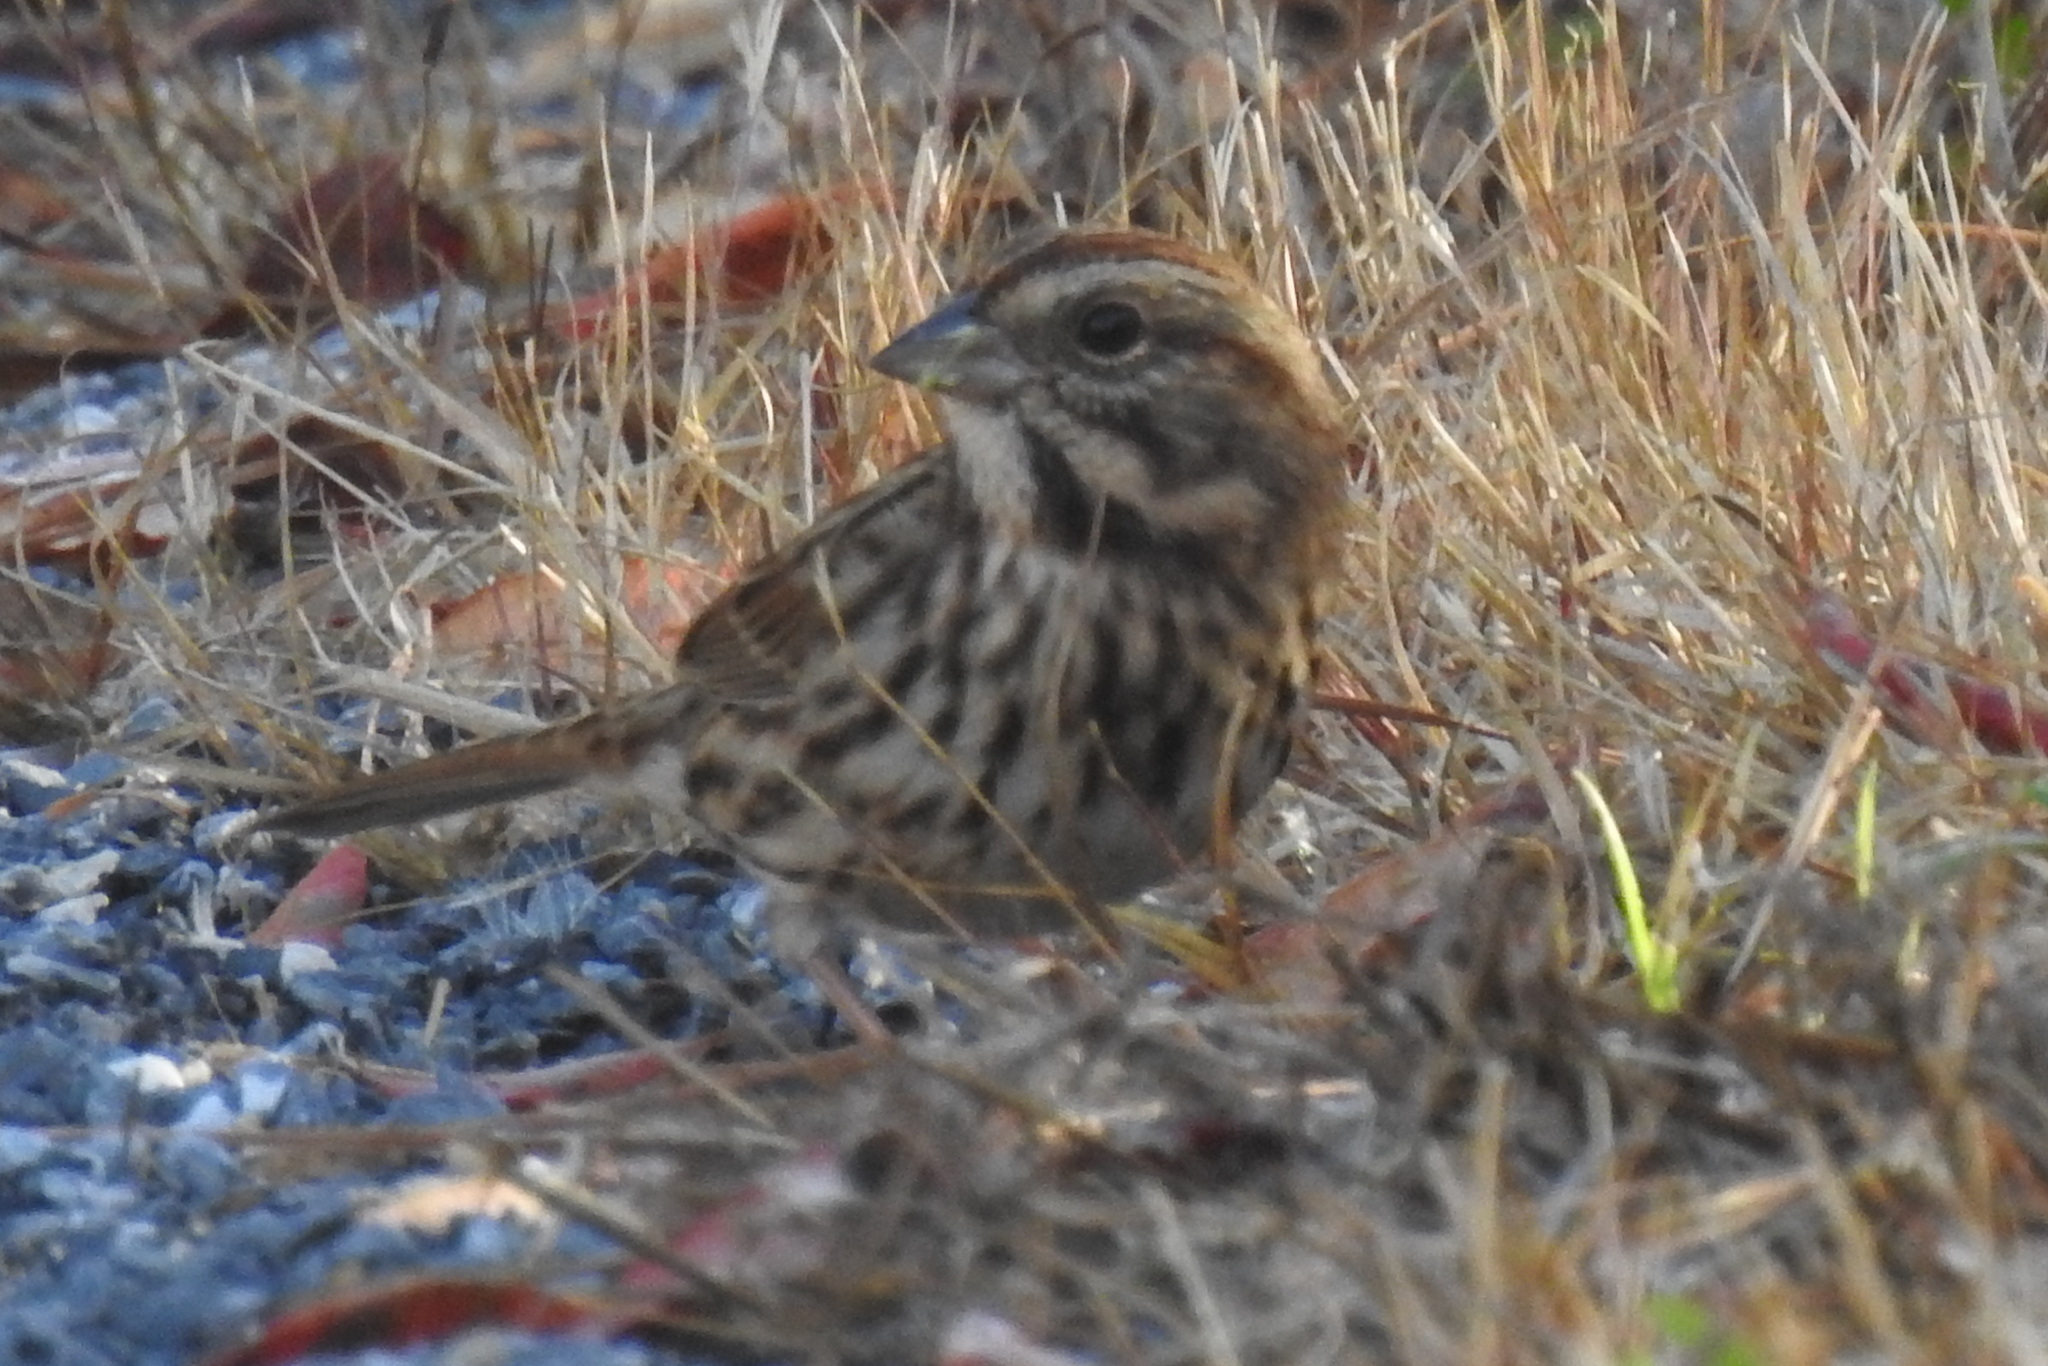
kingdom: Animalia
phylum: Chordata
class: Aves
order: Passeriformes
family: Passerellidae
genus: Melospiza
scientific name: Melospiza melodia
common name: Song sparrow
